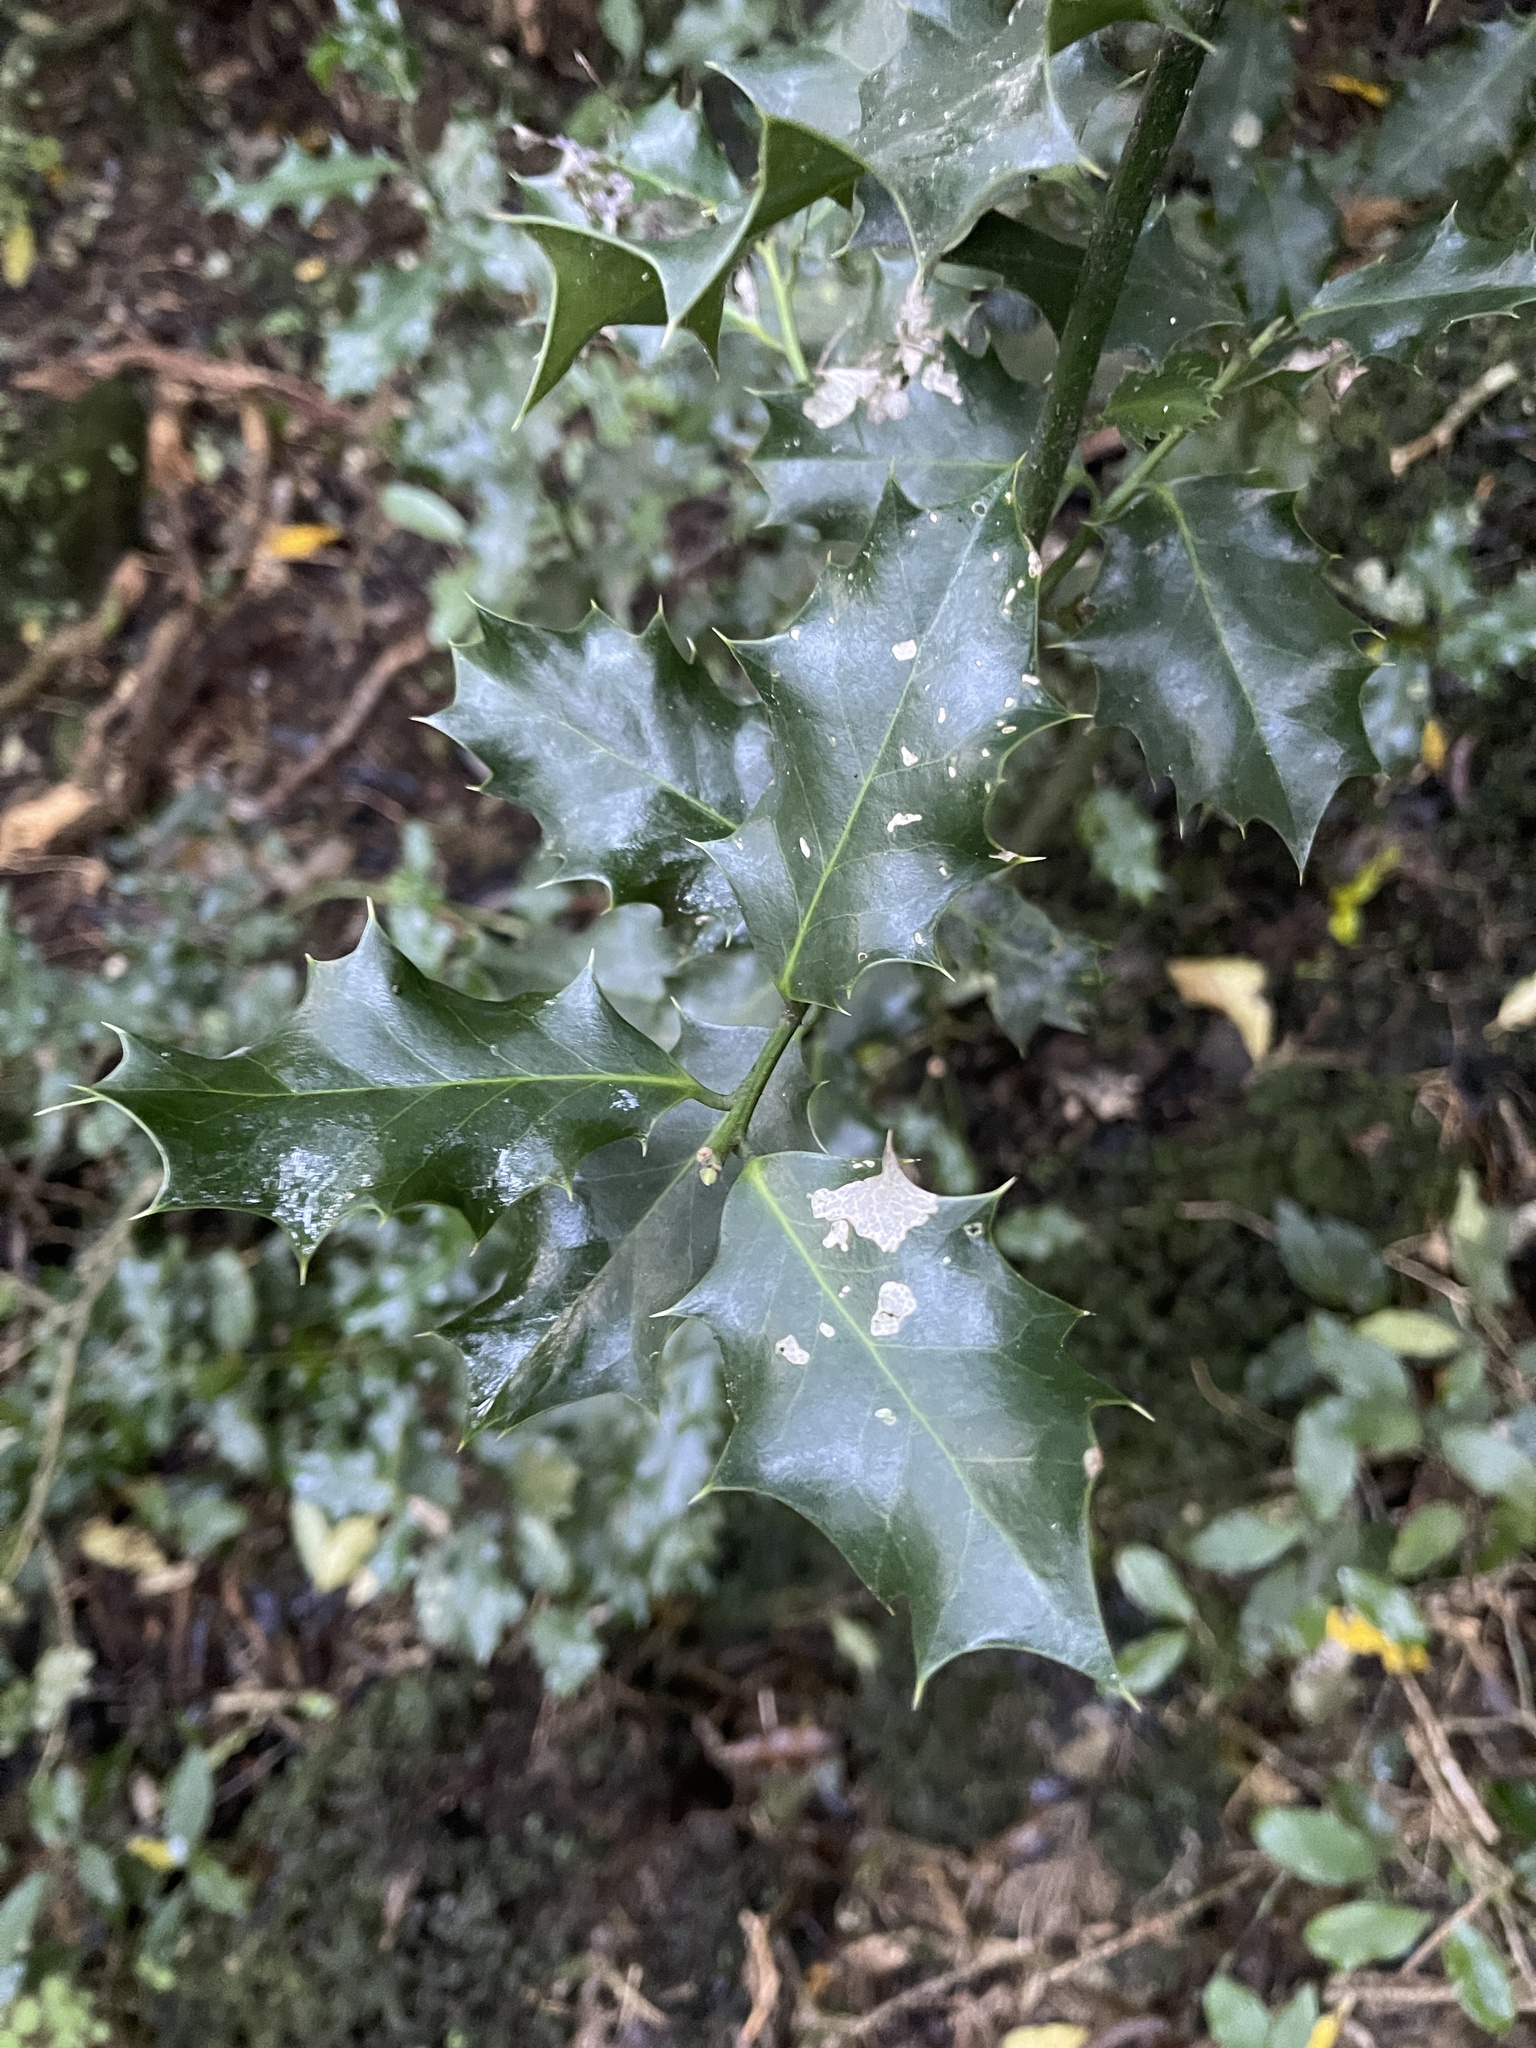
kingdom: Plantae
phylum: Tracheophyta
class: Magnoliopsida
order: Aquifoliales
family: Aquifoliaceae
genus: Ilex
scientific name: Ilex aquifolium
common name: English holly
